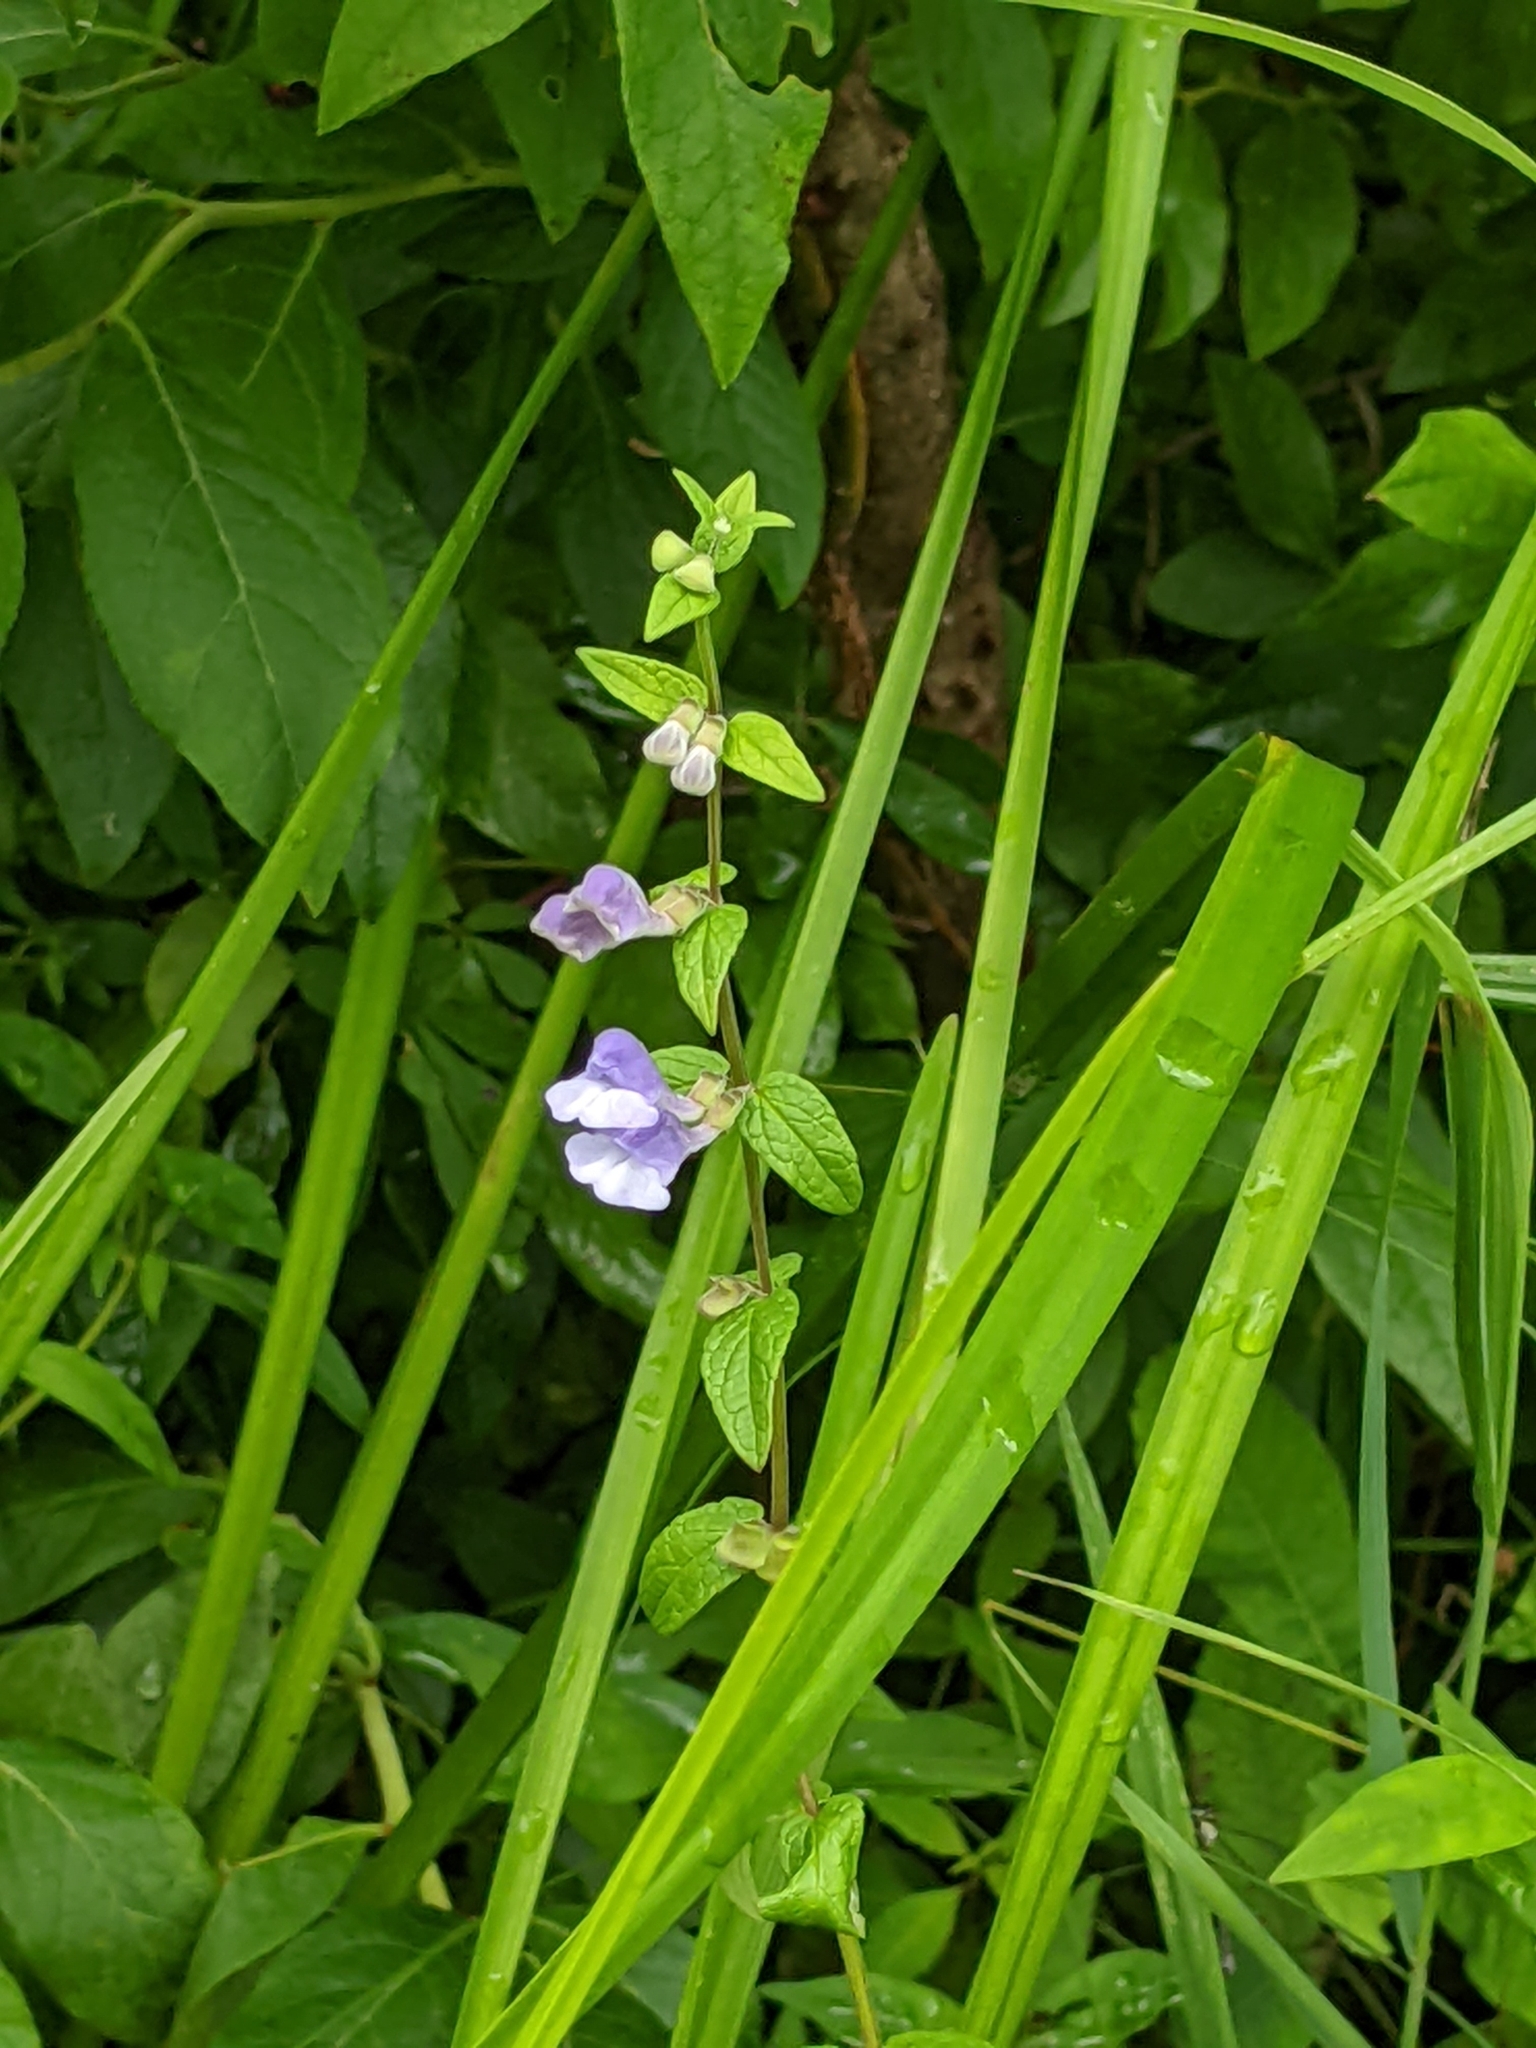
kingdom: Plantae
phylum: Tracheophyta
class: Magnoliopsida
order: Lamiales
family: Lamiaceae
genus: Scutellaria
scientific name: Scutellaria galericulata
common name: Skullcap
